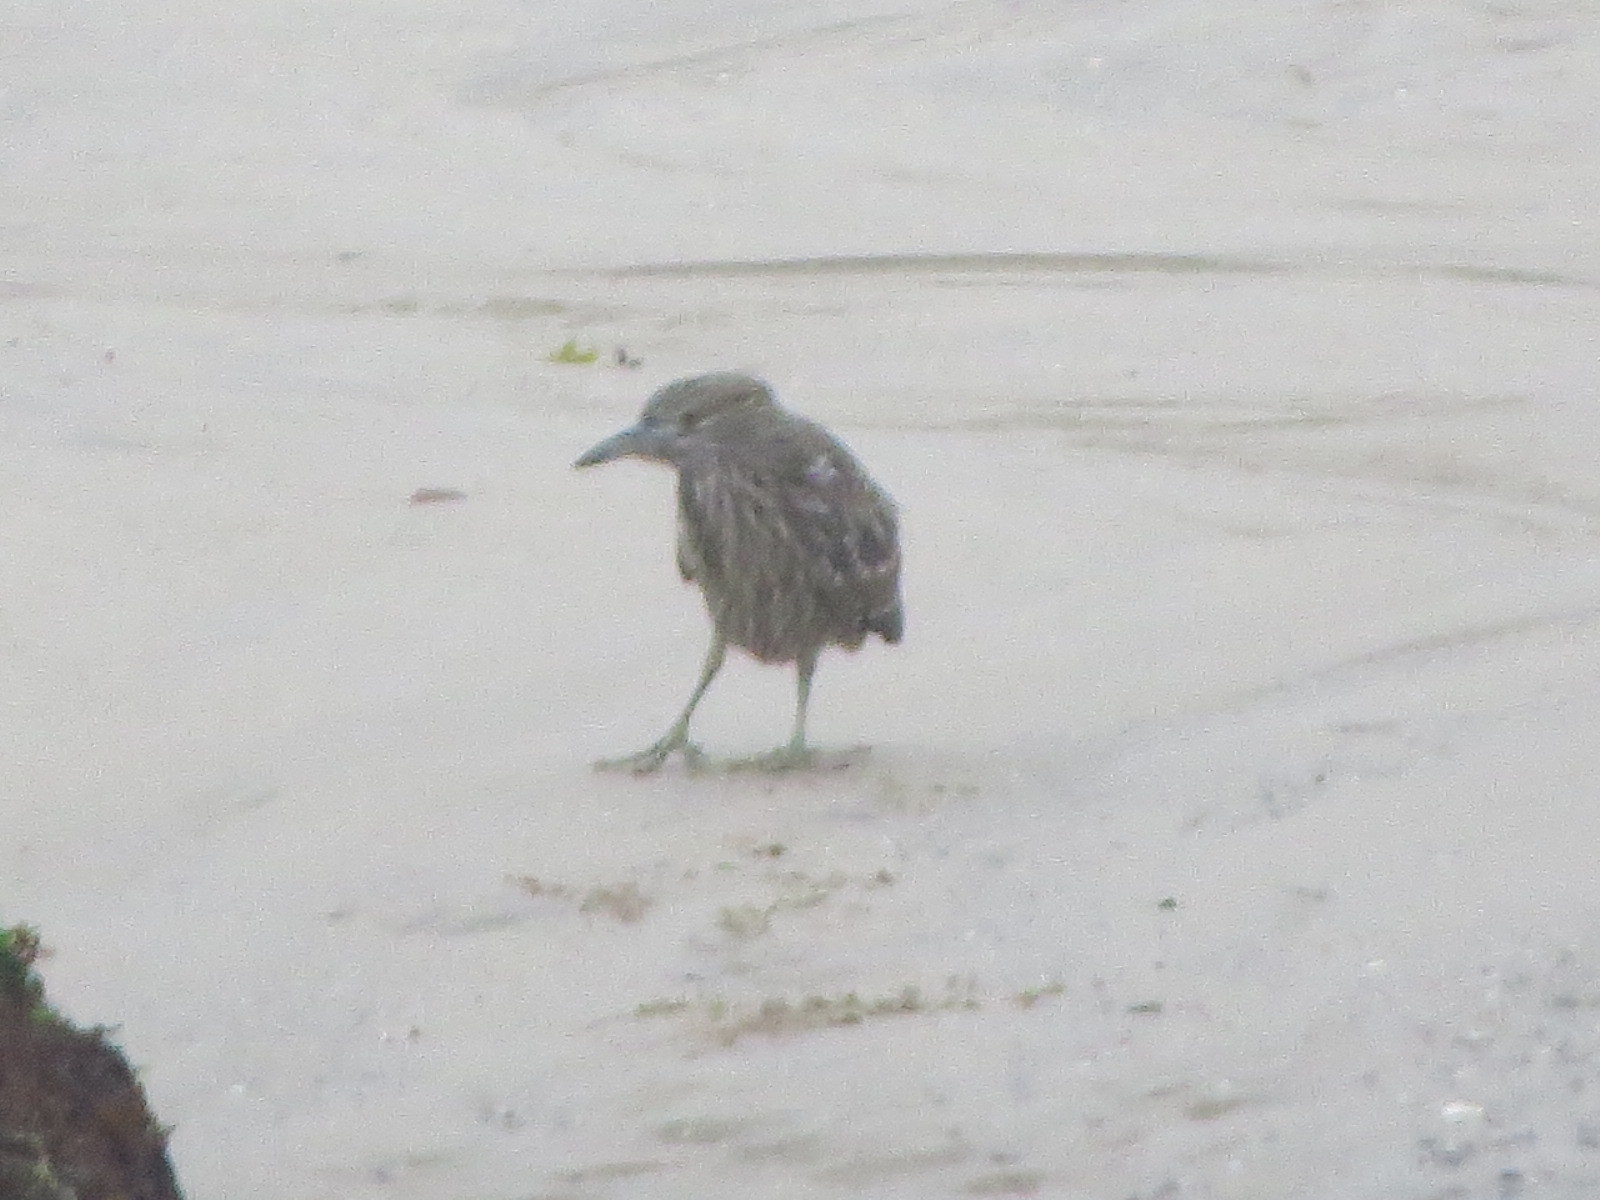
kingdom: Animalia
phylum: Chordata
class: Aves
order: Pelecaniformes
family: Ardeidae
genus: Nycticorax
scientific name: Nycticorax nycticorax
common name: Black-crowned night heron
